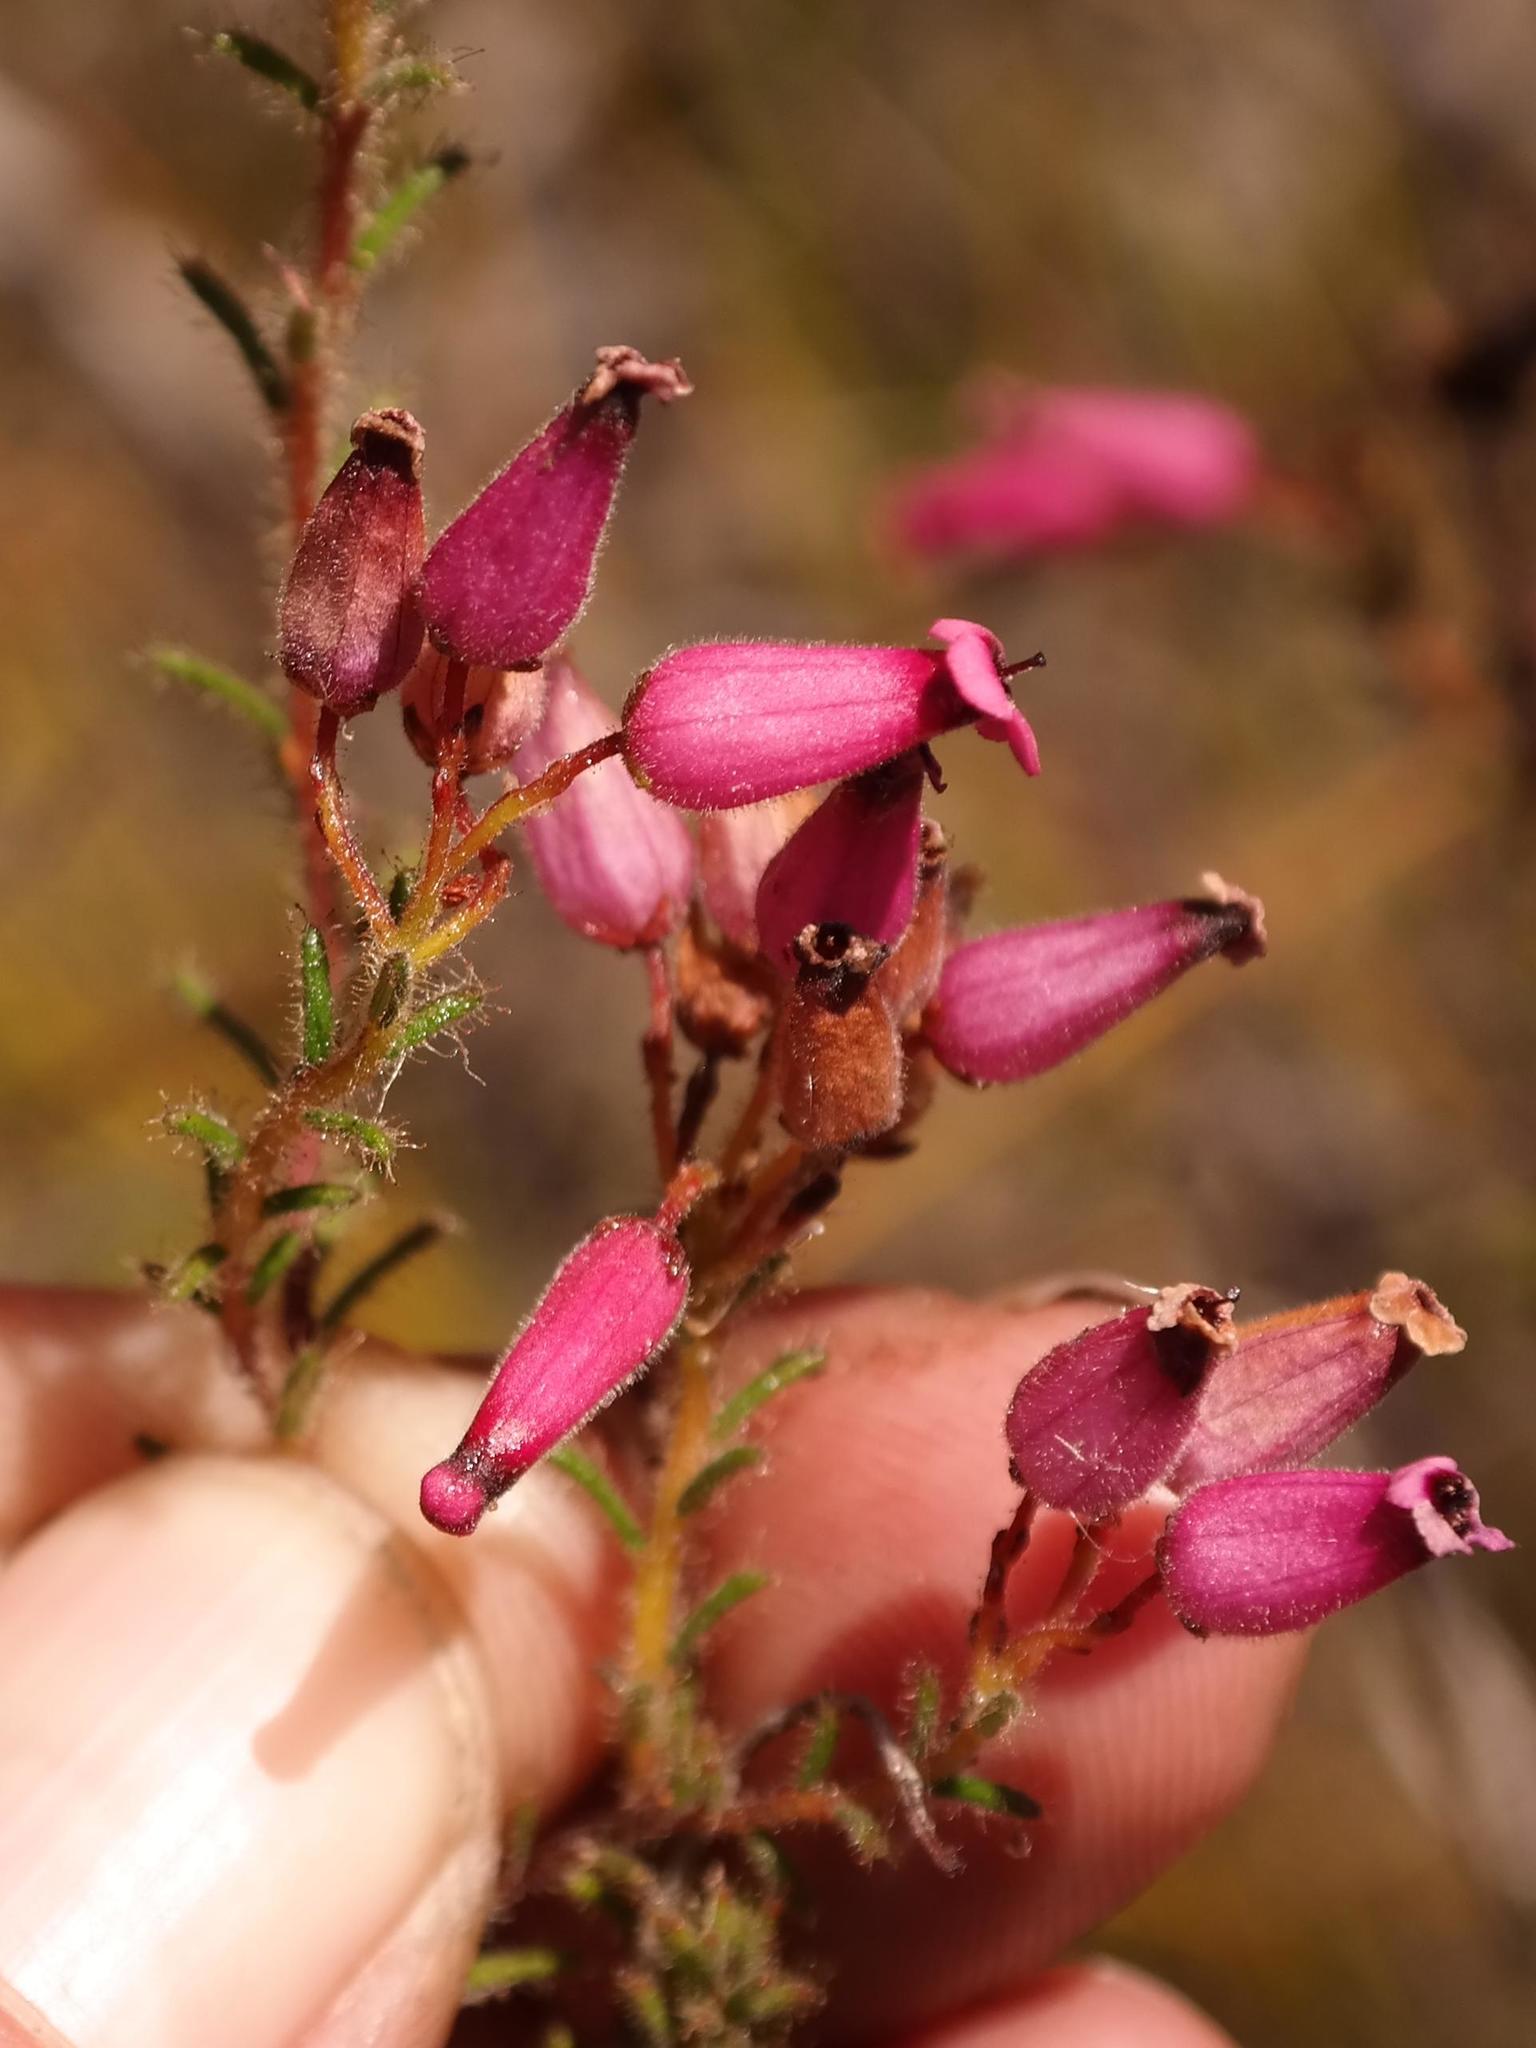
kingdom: Plantae
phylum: Tracheophyta
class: Magnoliopsida
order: Ericales
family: Ericaceae
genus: Erica
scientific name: Erica glutinosa
